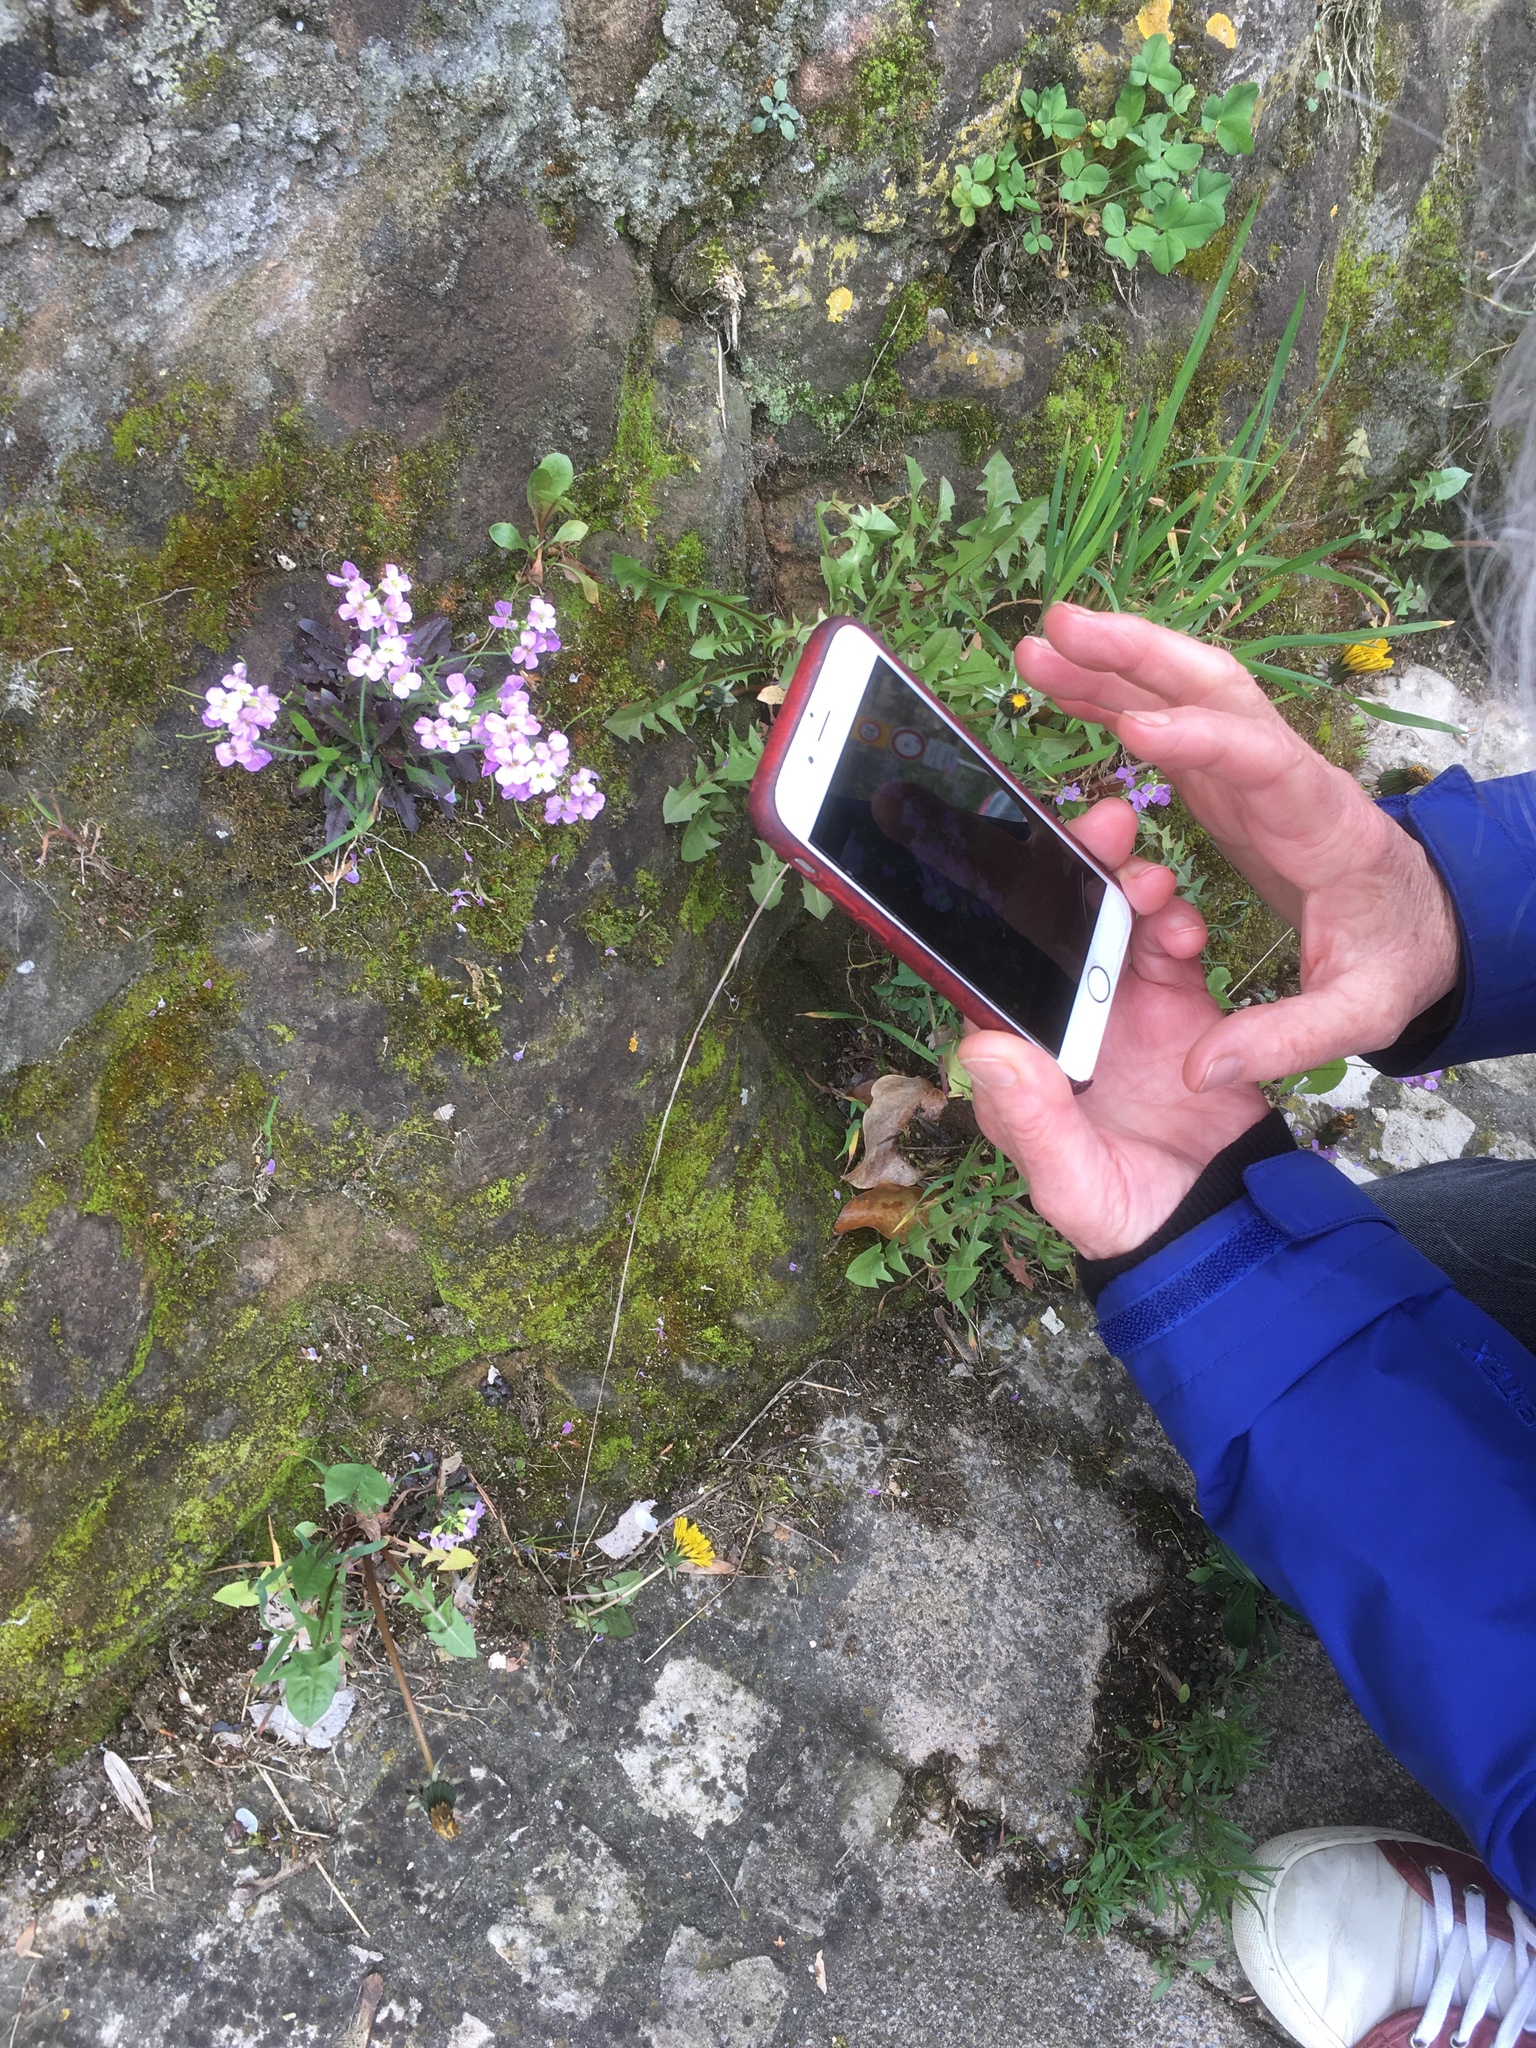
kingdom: Plantae
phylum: Tracheophyta
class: Magnoliopsida
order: Brassicales
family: Brassicaceae
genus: Arabidopsis
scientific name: Arabidopsis arenosa
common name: Sand rock-cress
